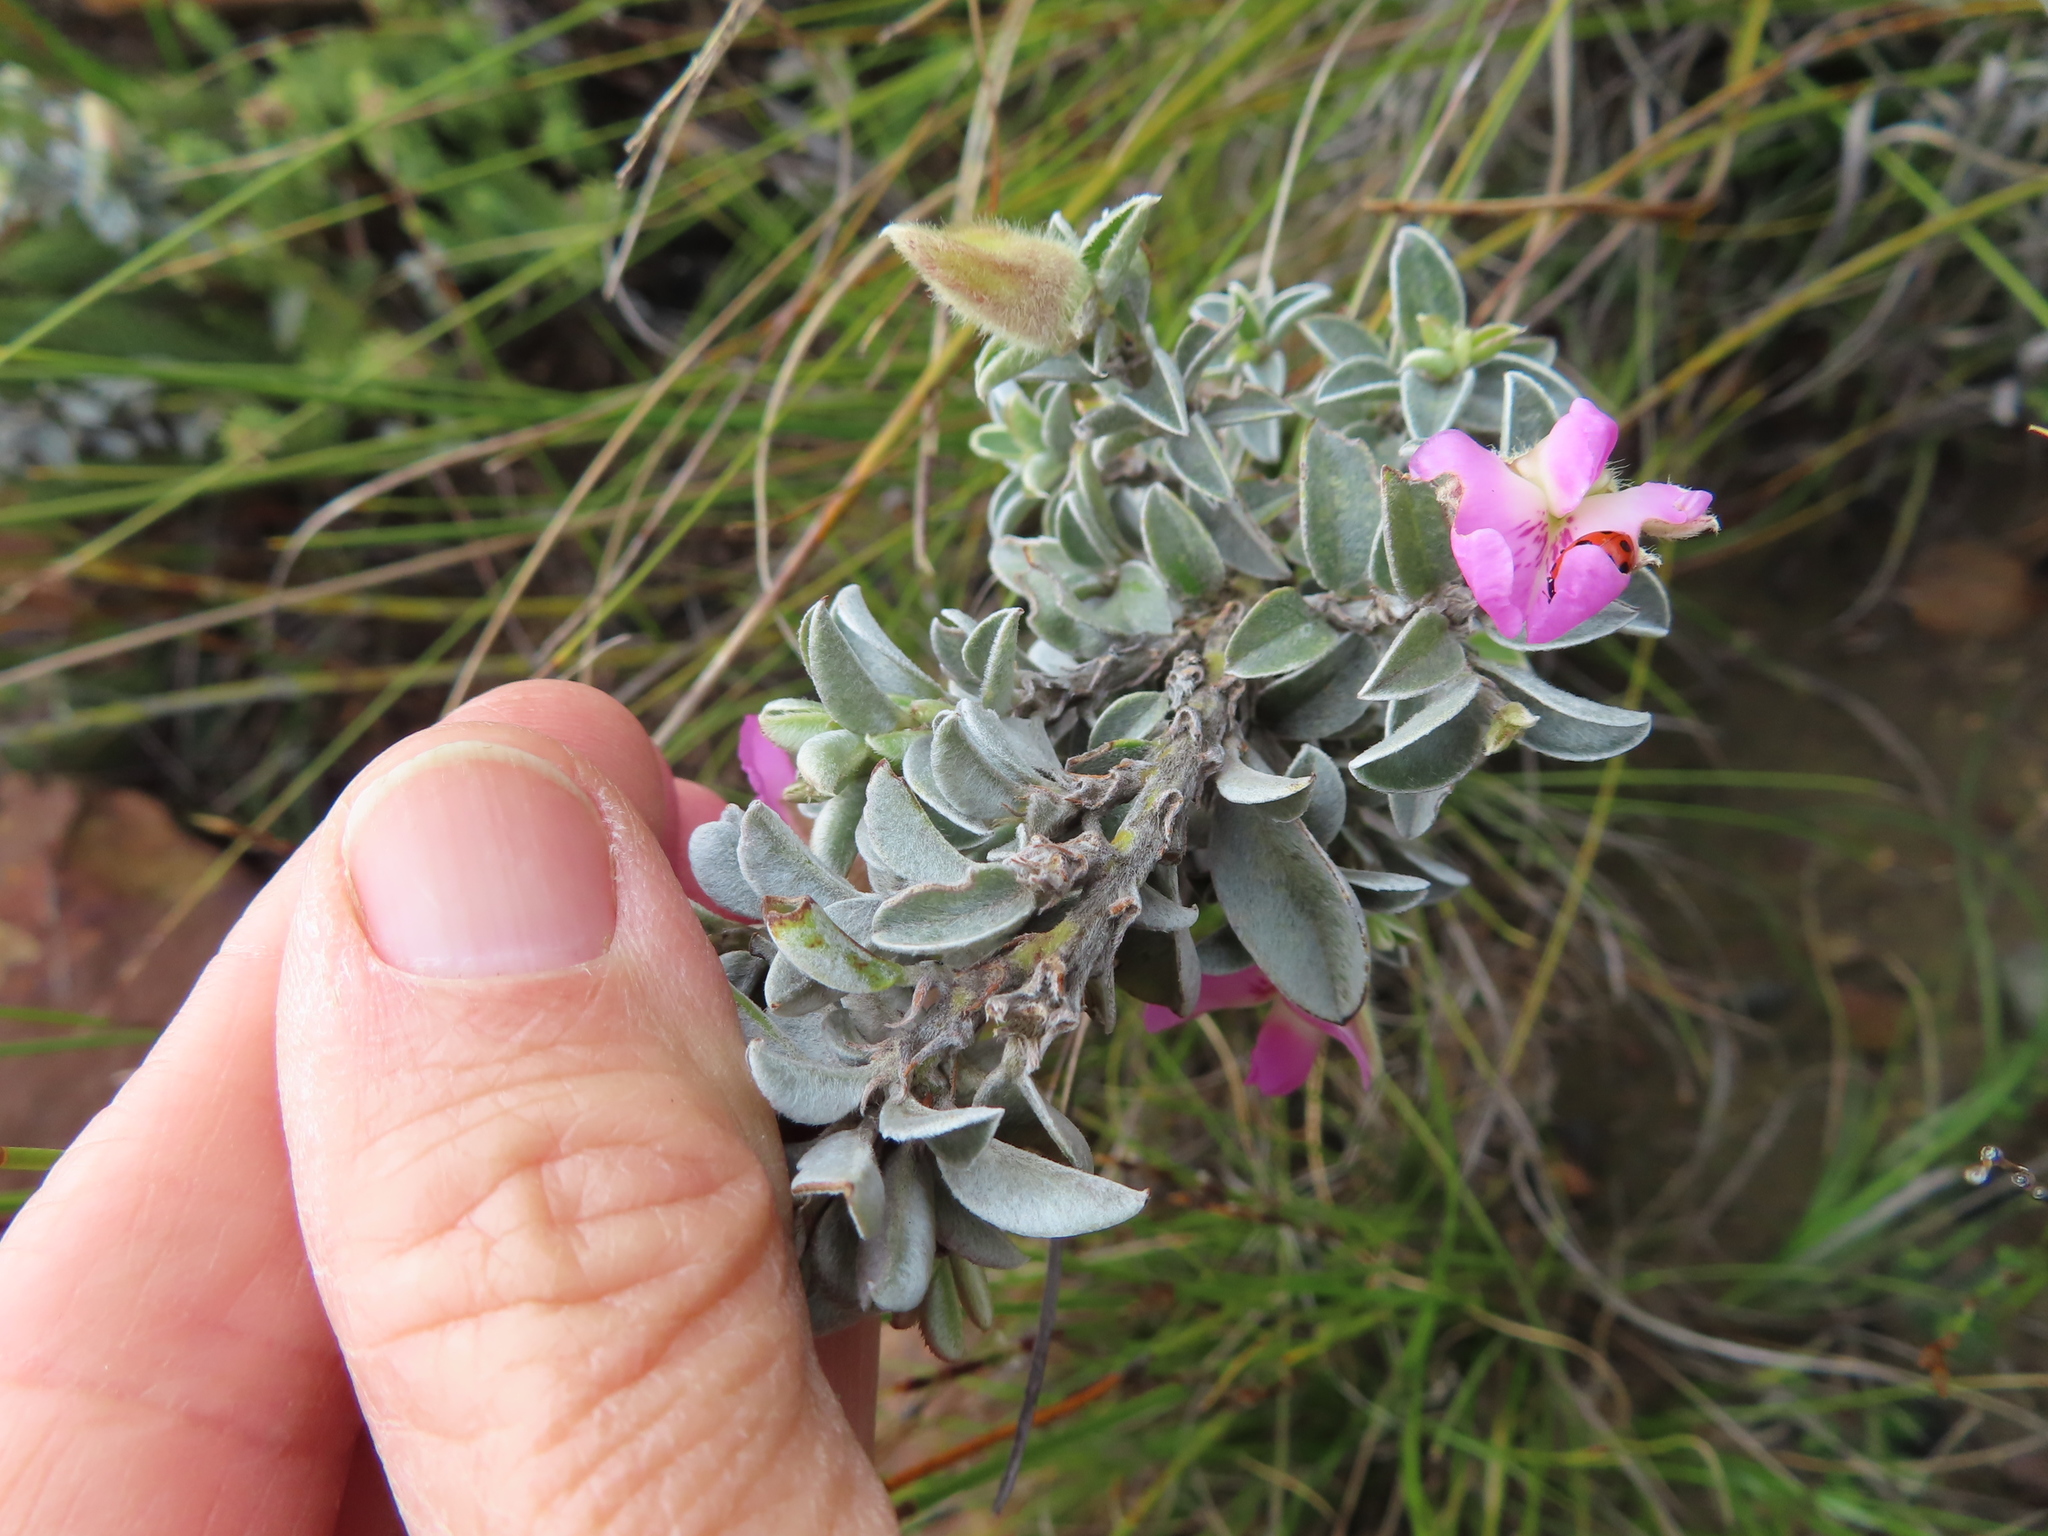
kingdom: Plantae
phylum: Tracheophyta
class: Magnoliopsida
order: Fabales
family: Fabaceae
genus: Podalyria
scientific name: Podalyria variabilis
